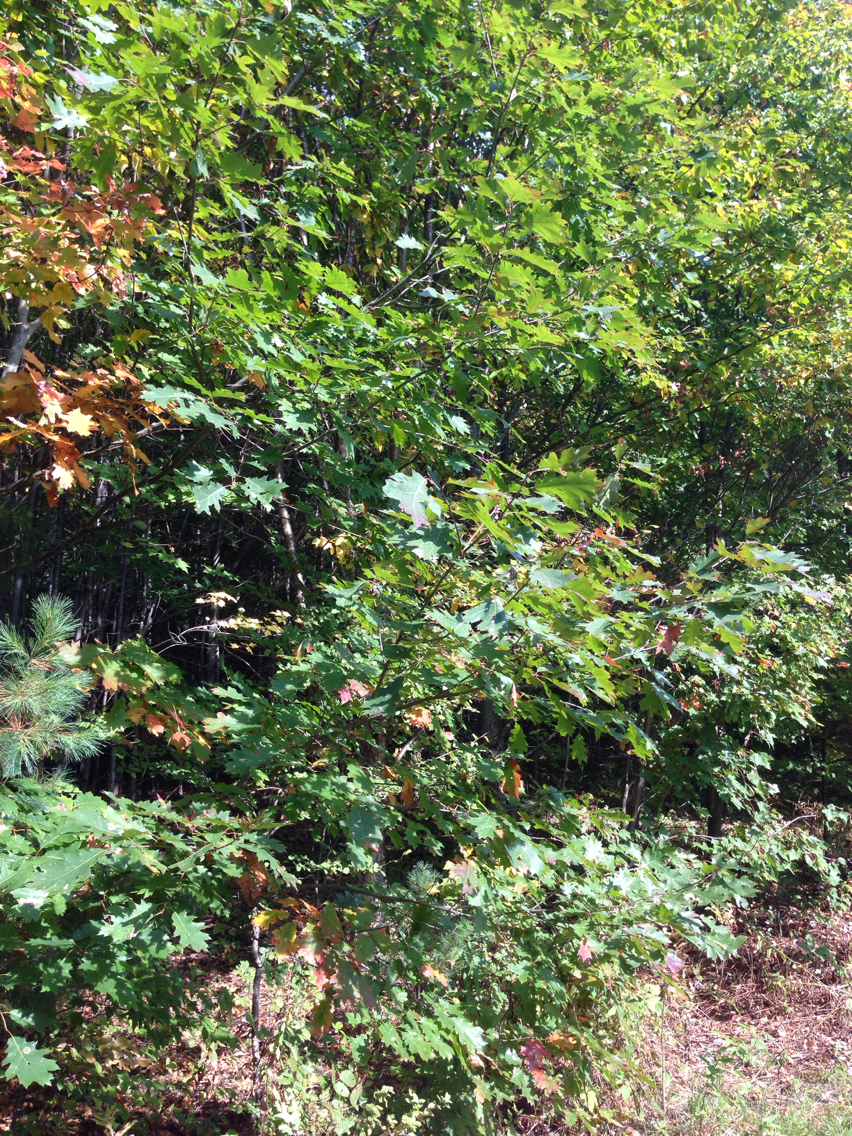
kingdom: Plantae
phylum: Tracheophyta
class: Magnoliopsida
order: Fagales
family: Fagaceae
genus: Quercus
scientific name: Quercus rubra
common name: Red oak
